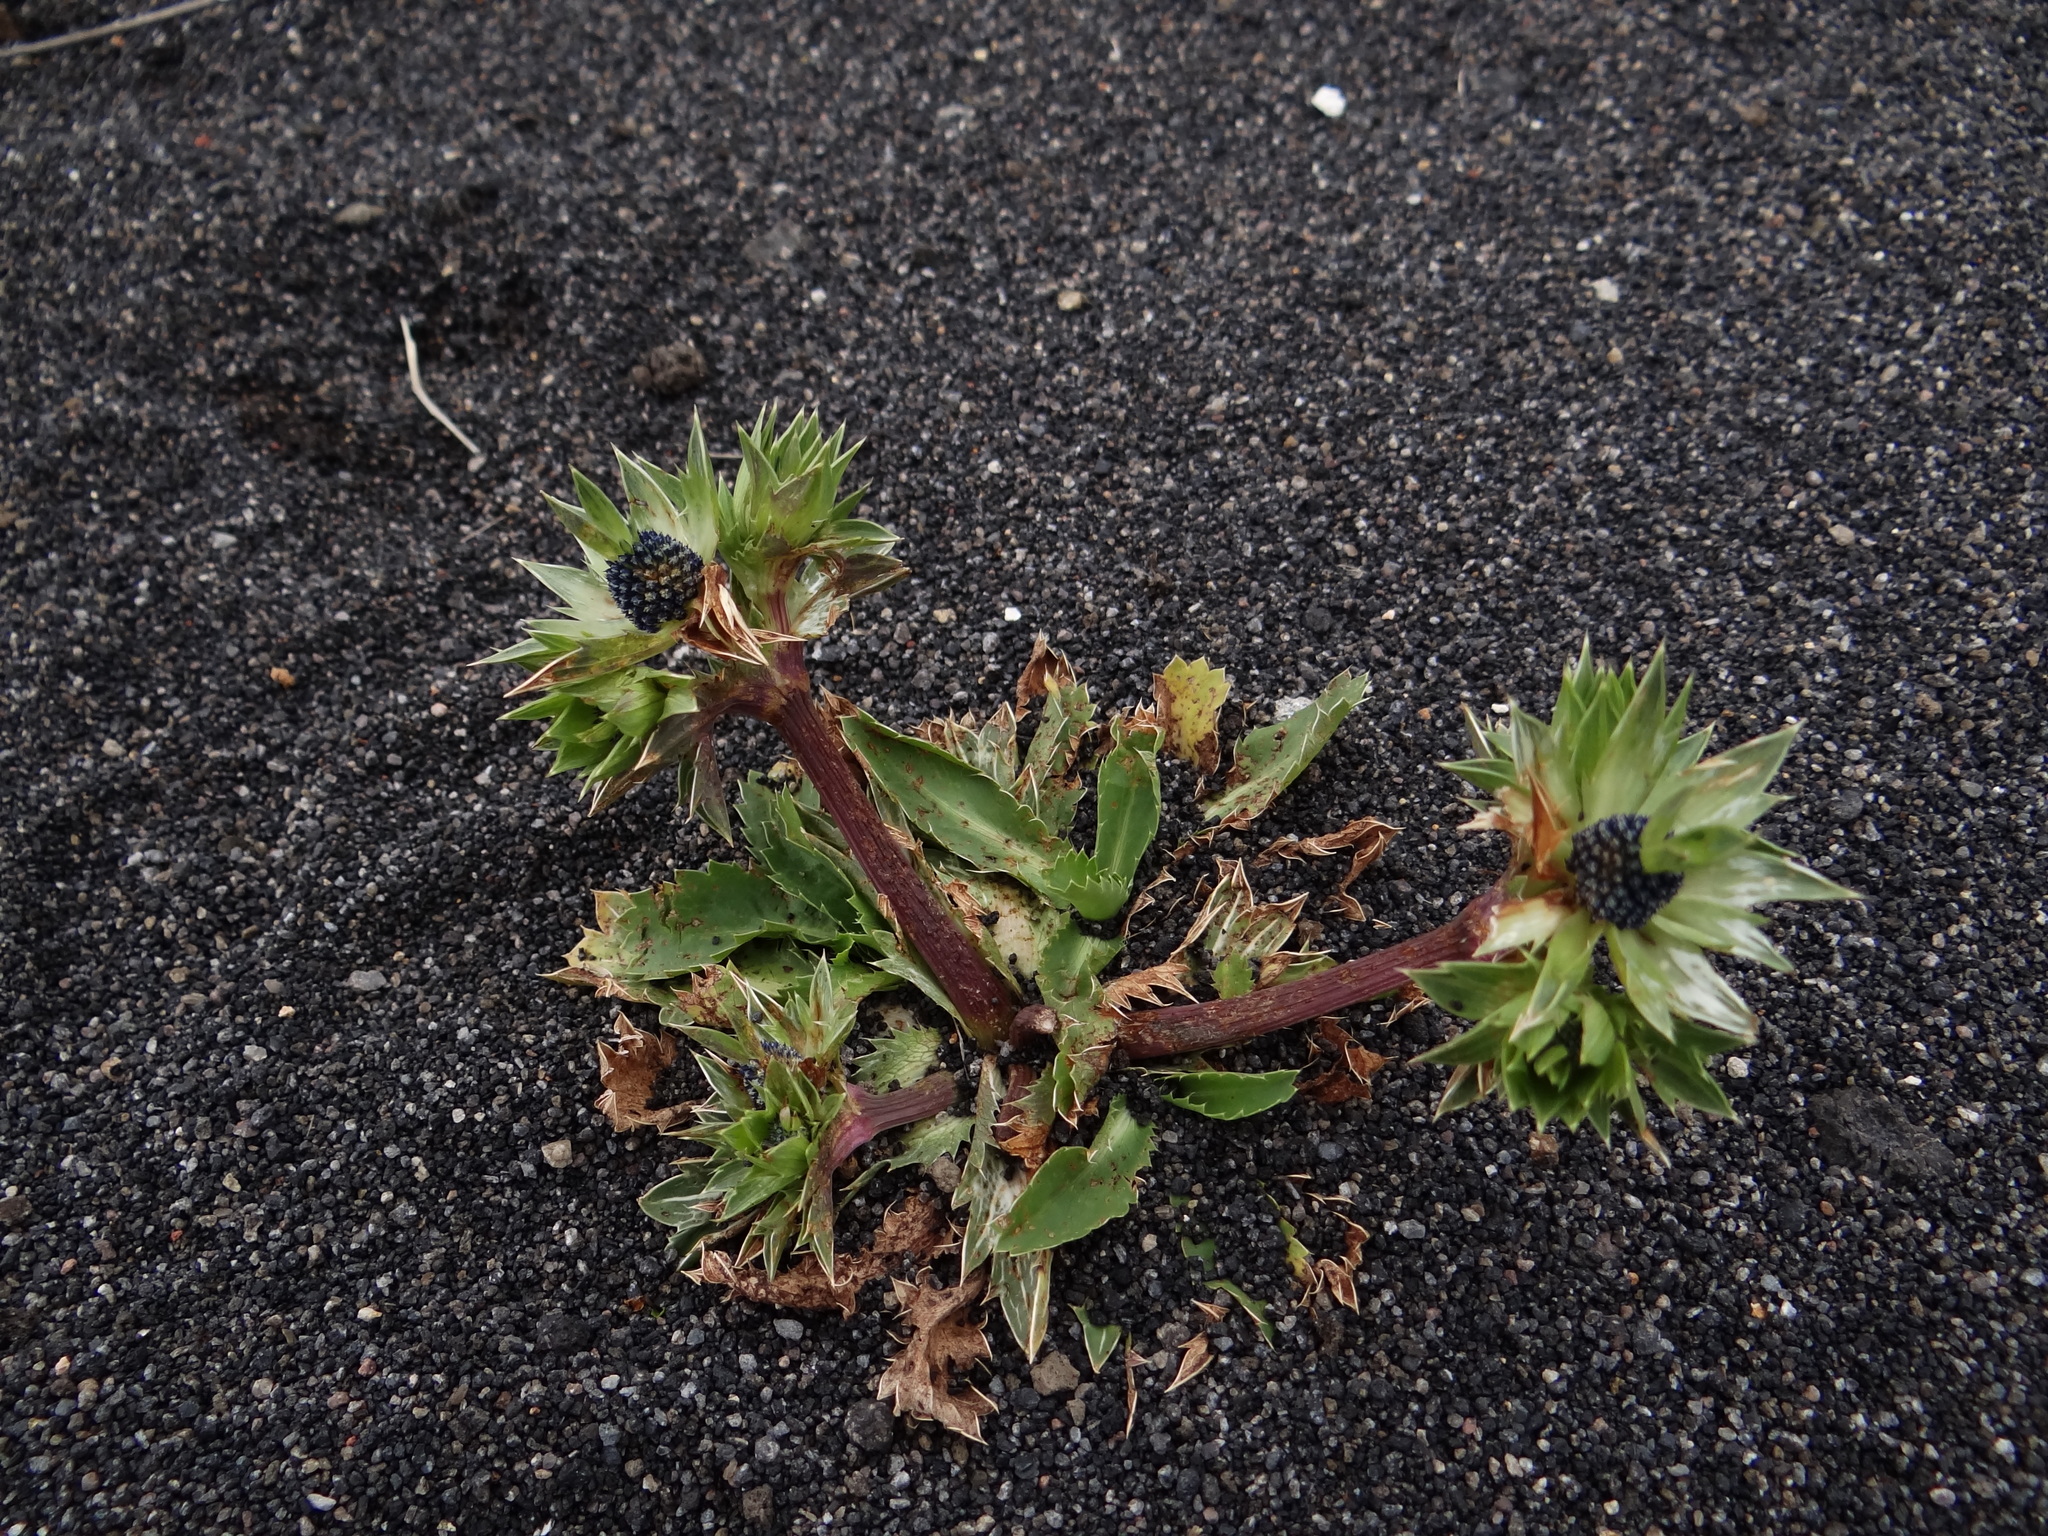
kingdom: Plantae
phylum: Tracheophyta
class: Magnoliopsida
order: Apiales
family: Apiaceae
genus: Eryngium
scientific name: Eryngium carlinae
